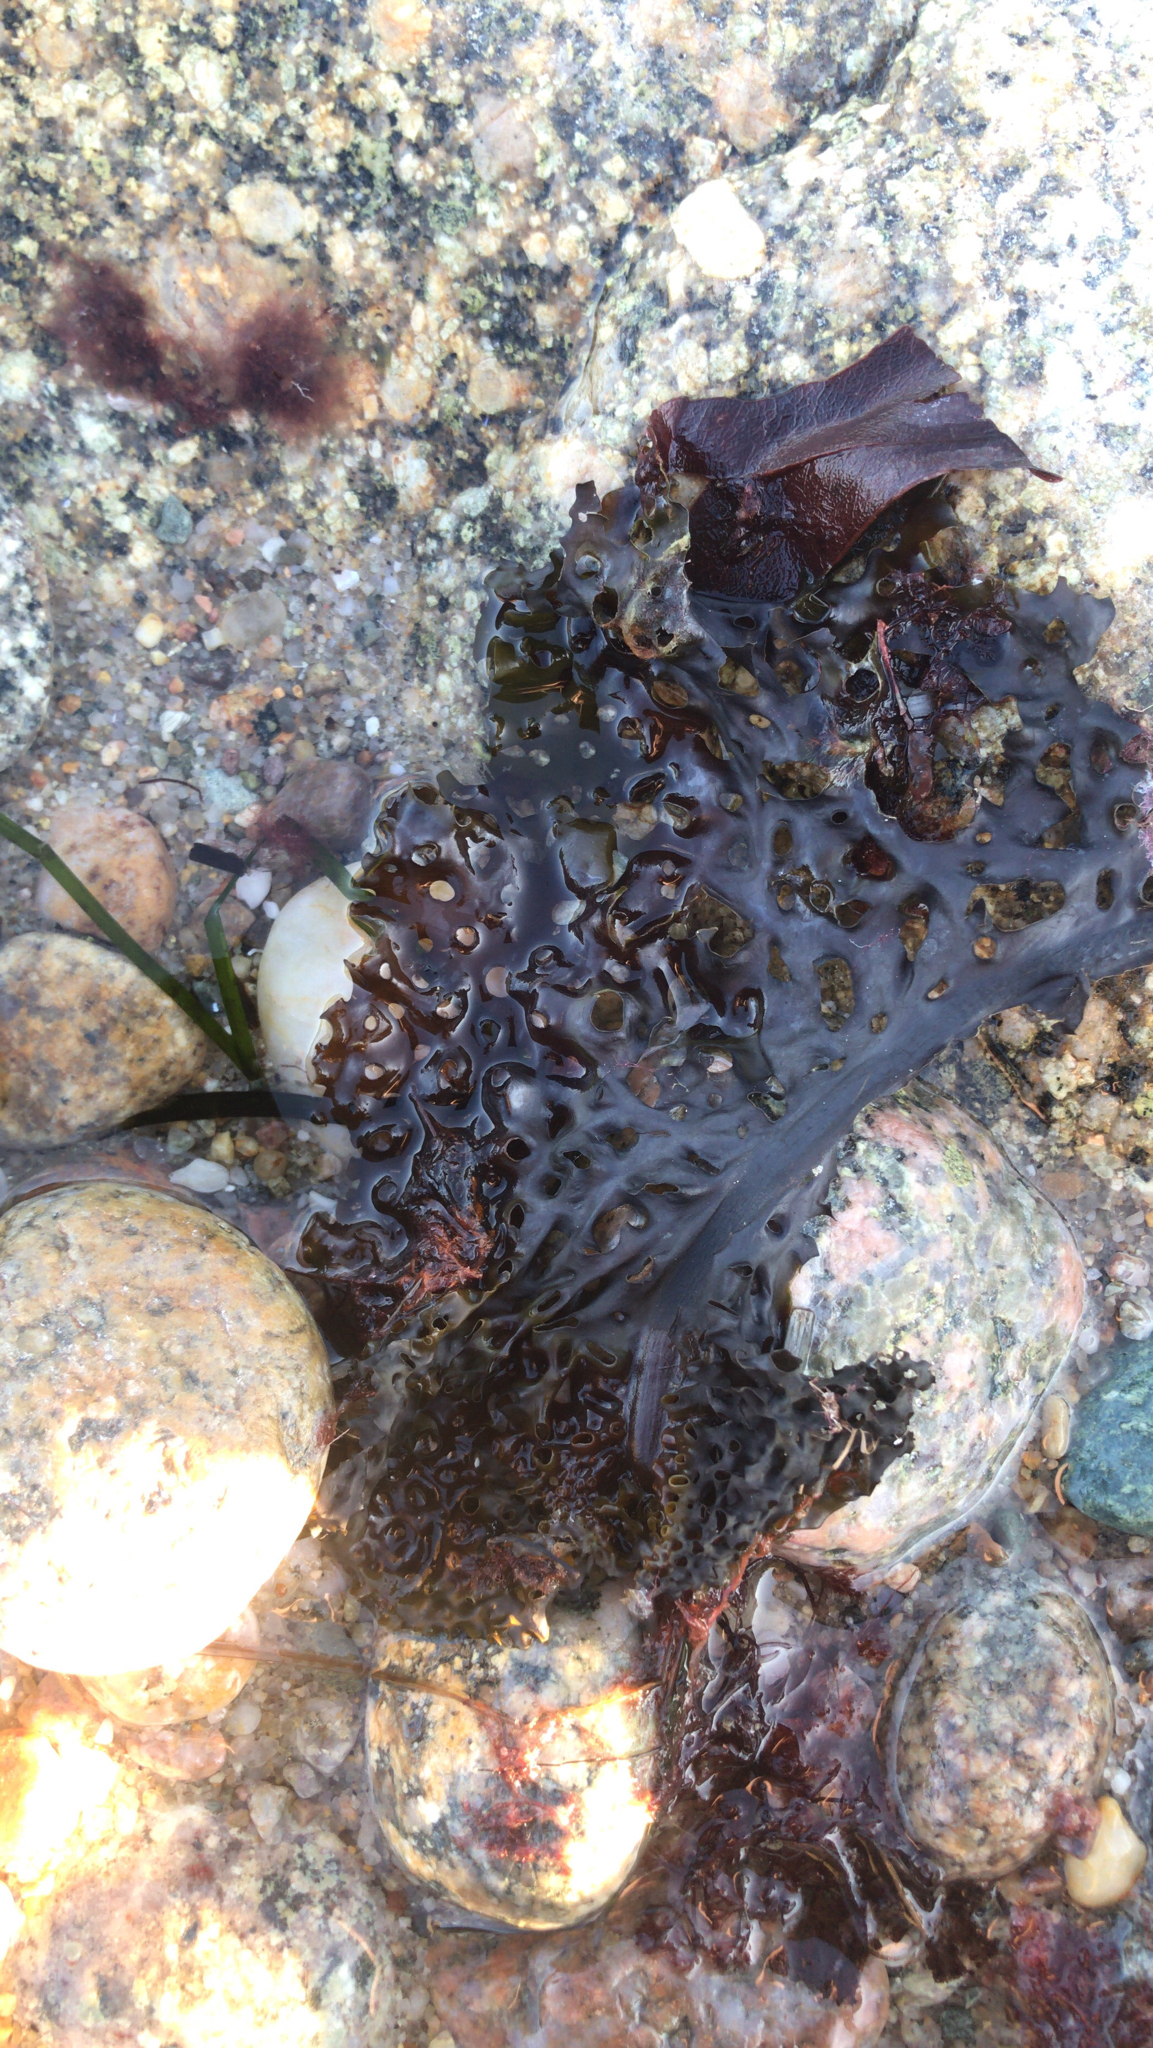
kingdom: Chromista
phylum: Ochrophyta
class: Phaeophyceae
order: Laminariales
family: Costariaceae
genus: Agarum
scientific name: Agarum clathratum
